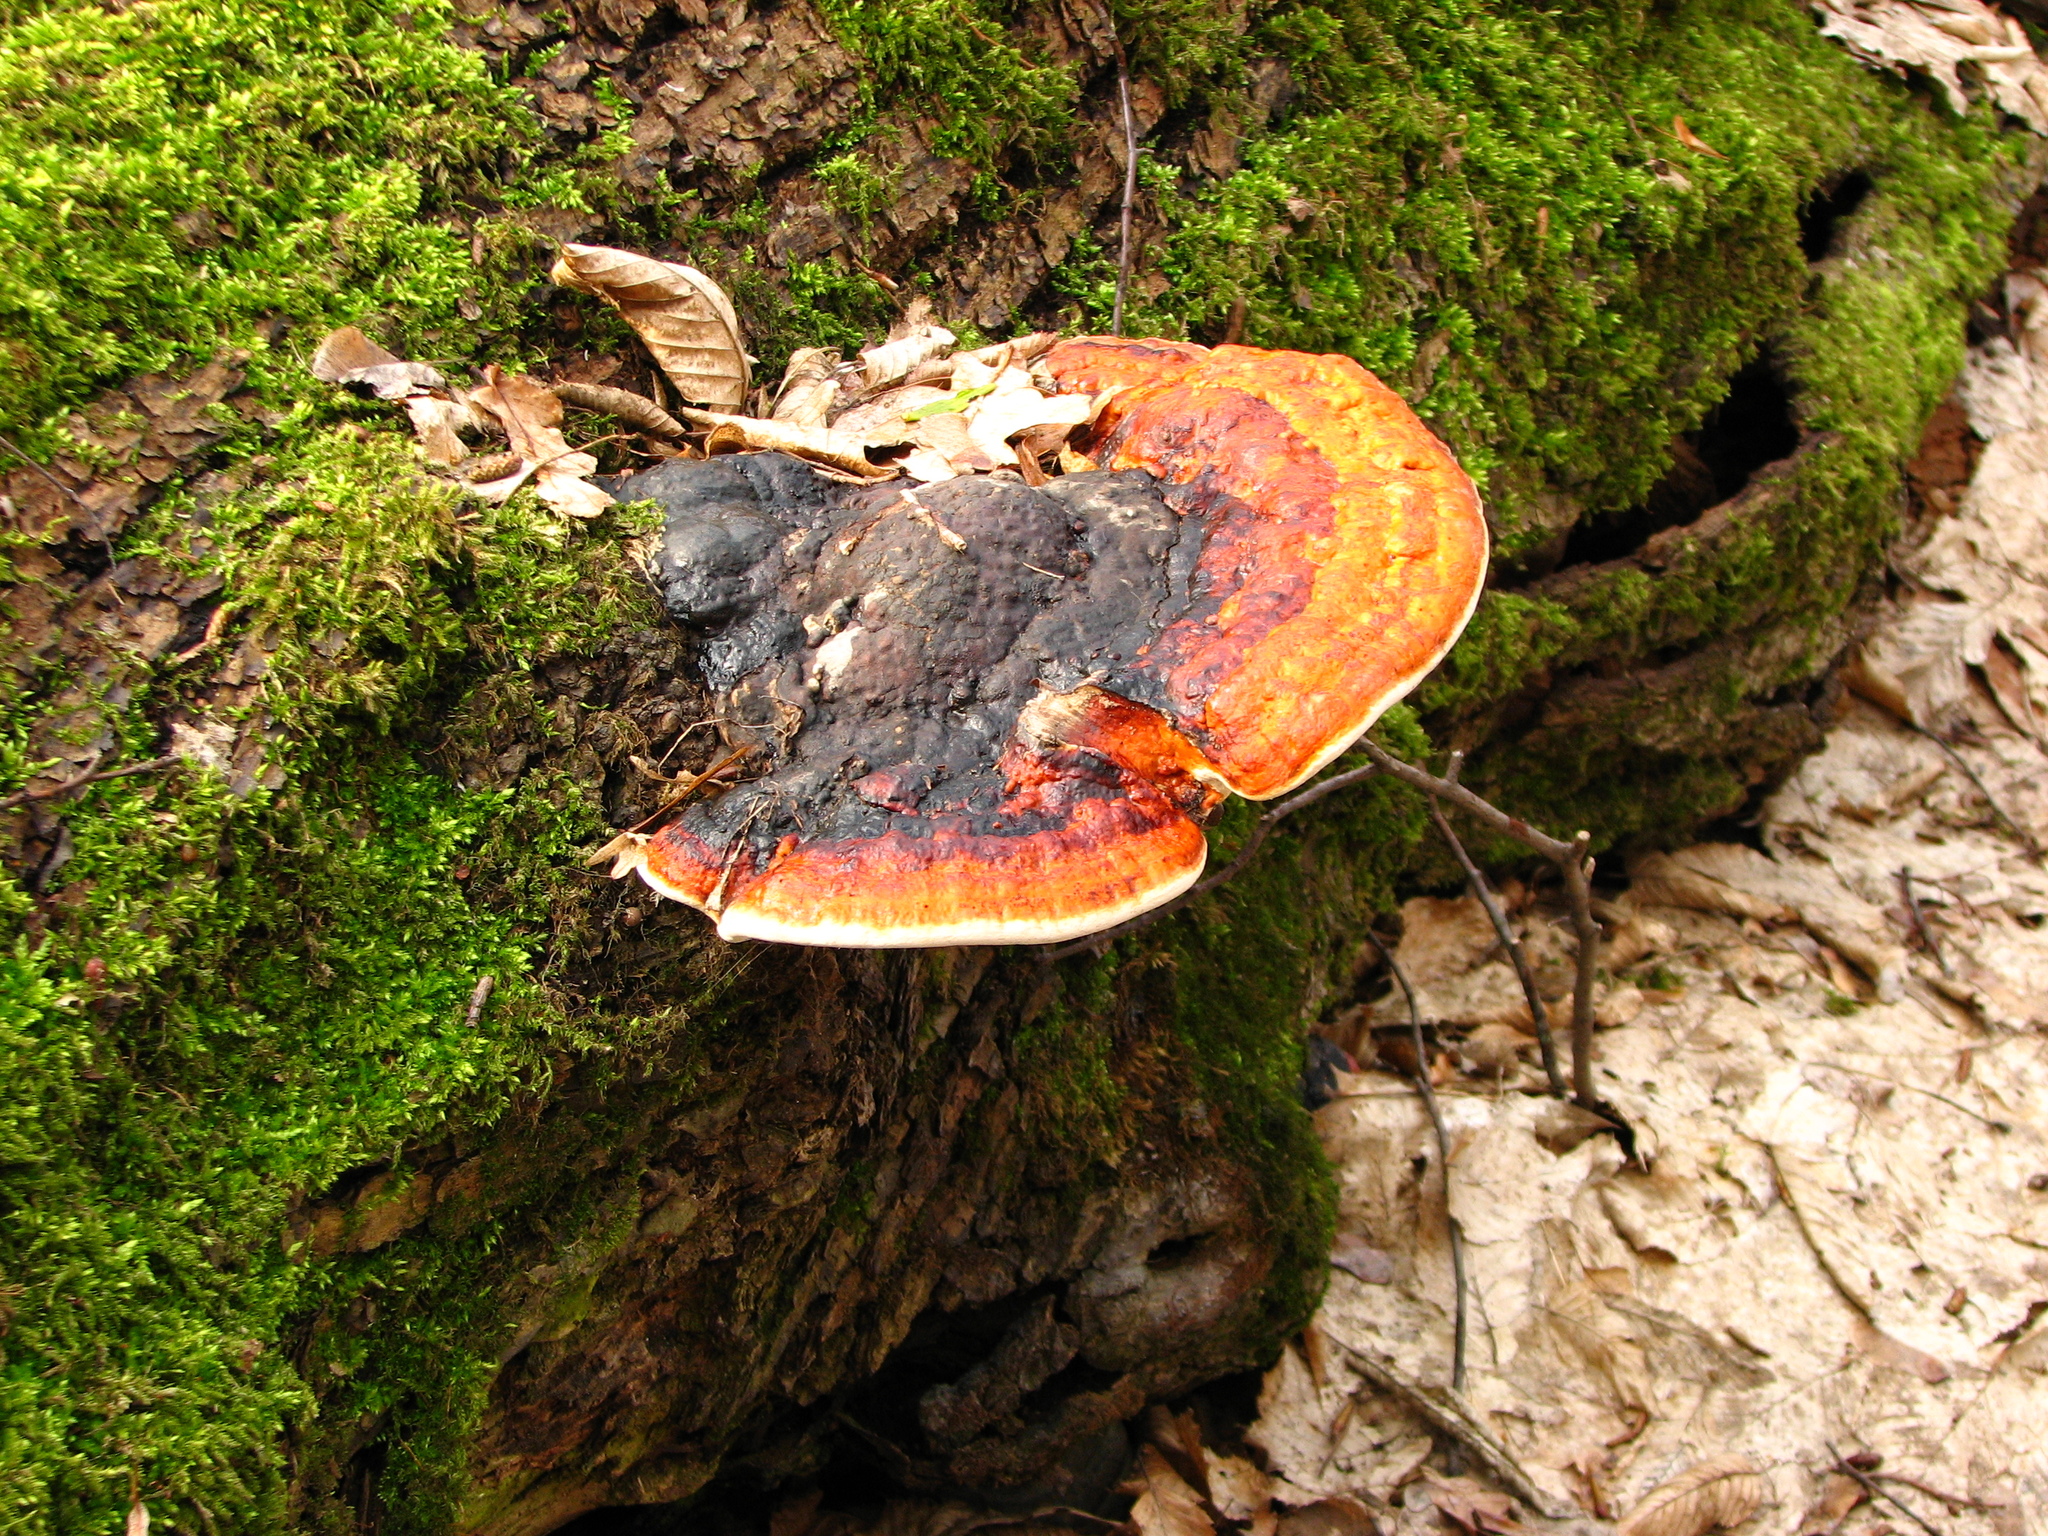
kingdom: Fungi
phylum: Basidiomycota
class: Agaricomycetes
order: Polyporales
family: Fomitopsidaceae
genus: Fomitopsis
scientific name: Fomitopsis pinicola
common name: Red-belted bracket
